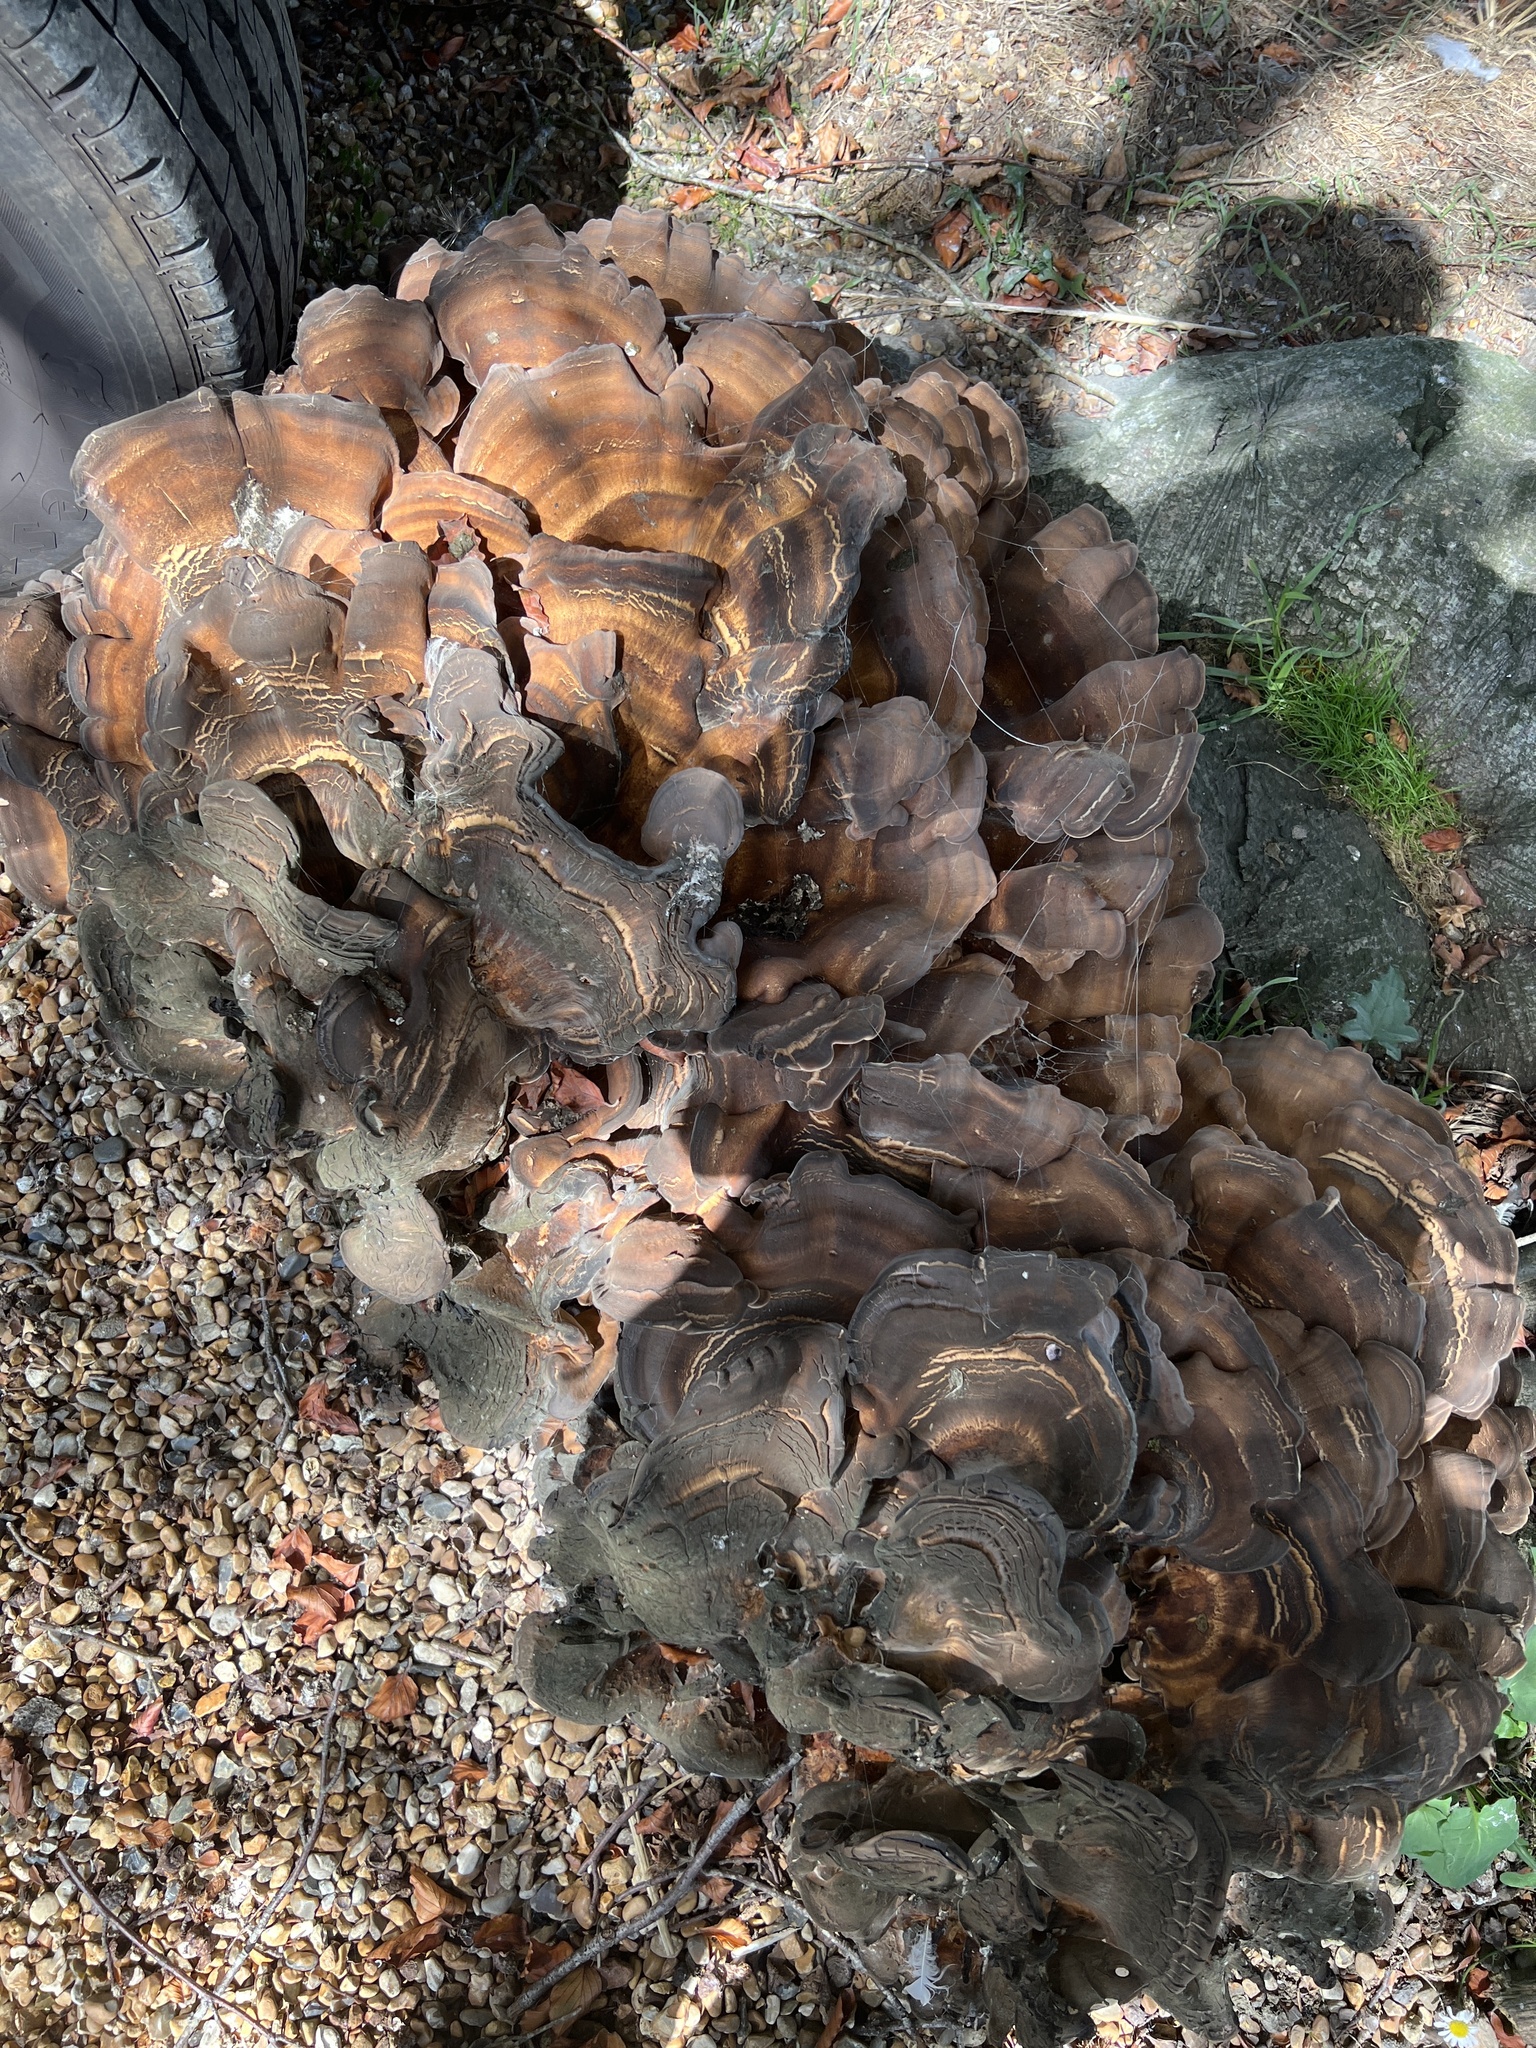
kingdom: Fungi
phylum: Basidiomycota
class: Agaricomycetes
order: Polyporales
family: Meripilaceae
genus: Meripilus
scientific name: Meripilus giganteus
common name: Giant polypore
